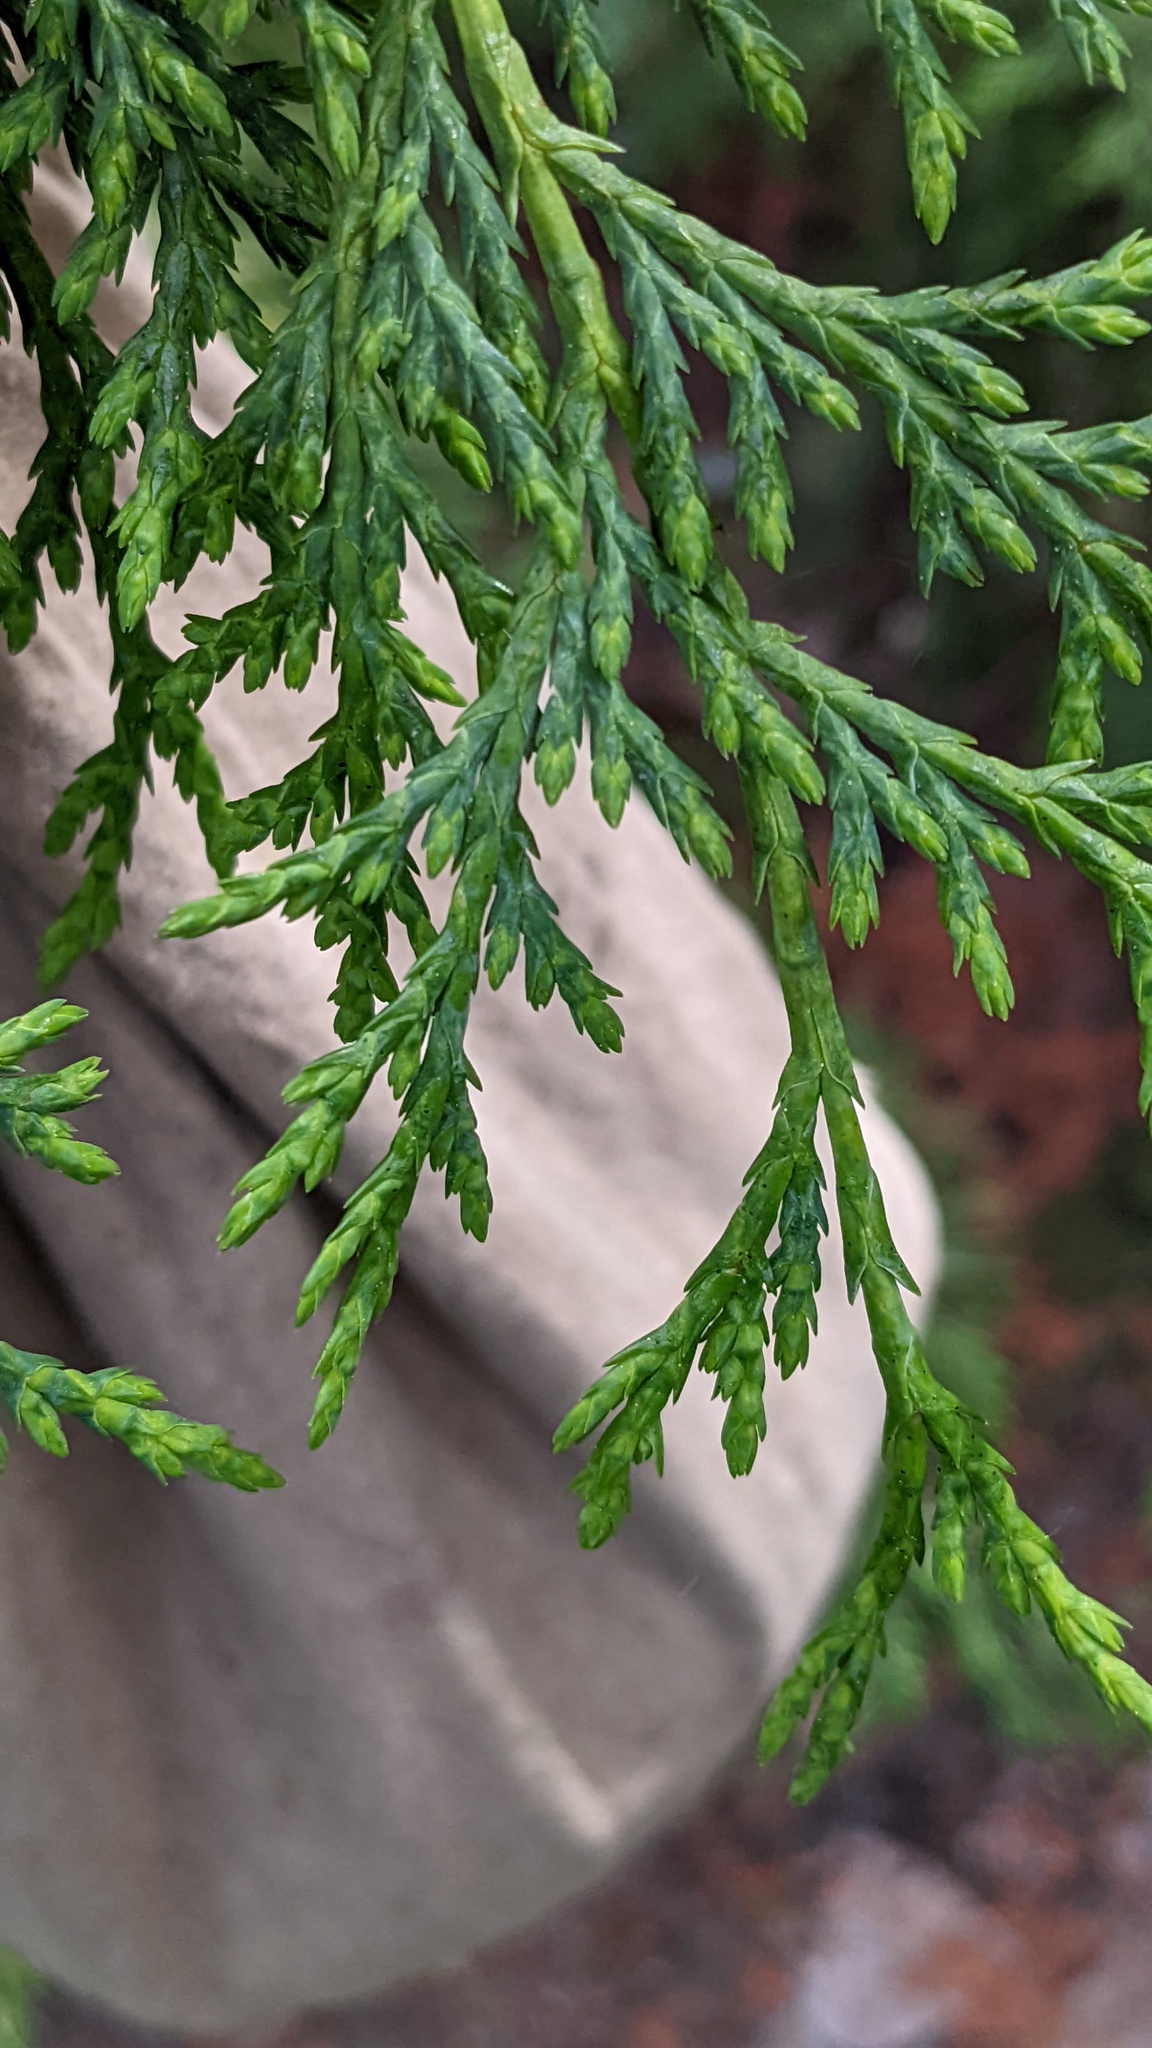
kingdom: Plantae
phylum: Tracheophyta
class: Pinopsida
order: Pinales
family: Cupressaceae
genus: Xanthocyparis
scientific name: Xanthocyparis nootkatensis
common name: Nootka cypress
